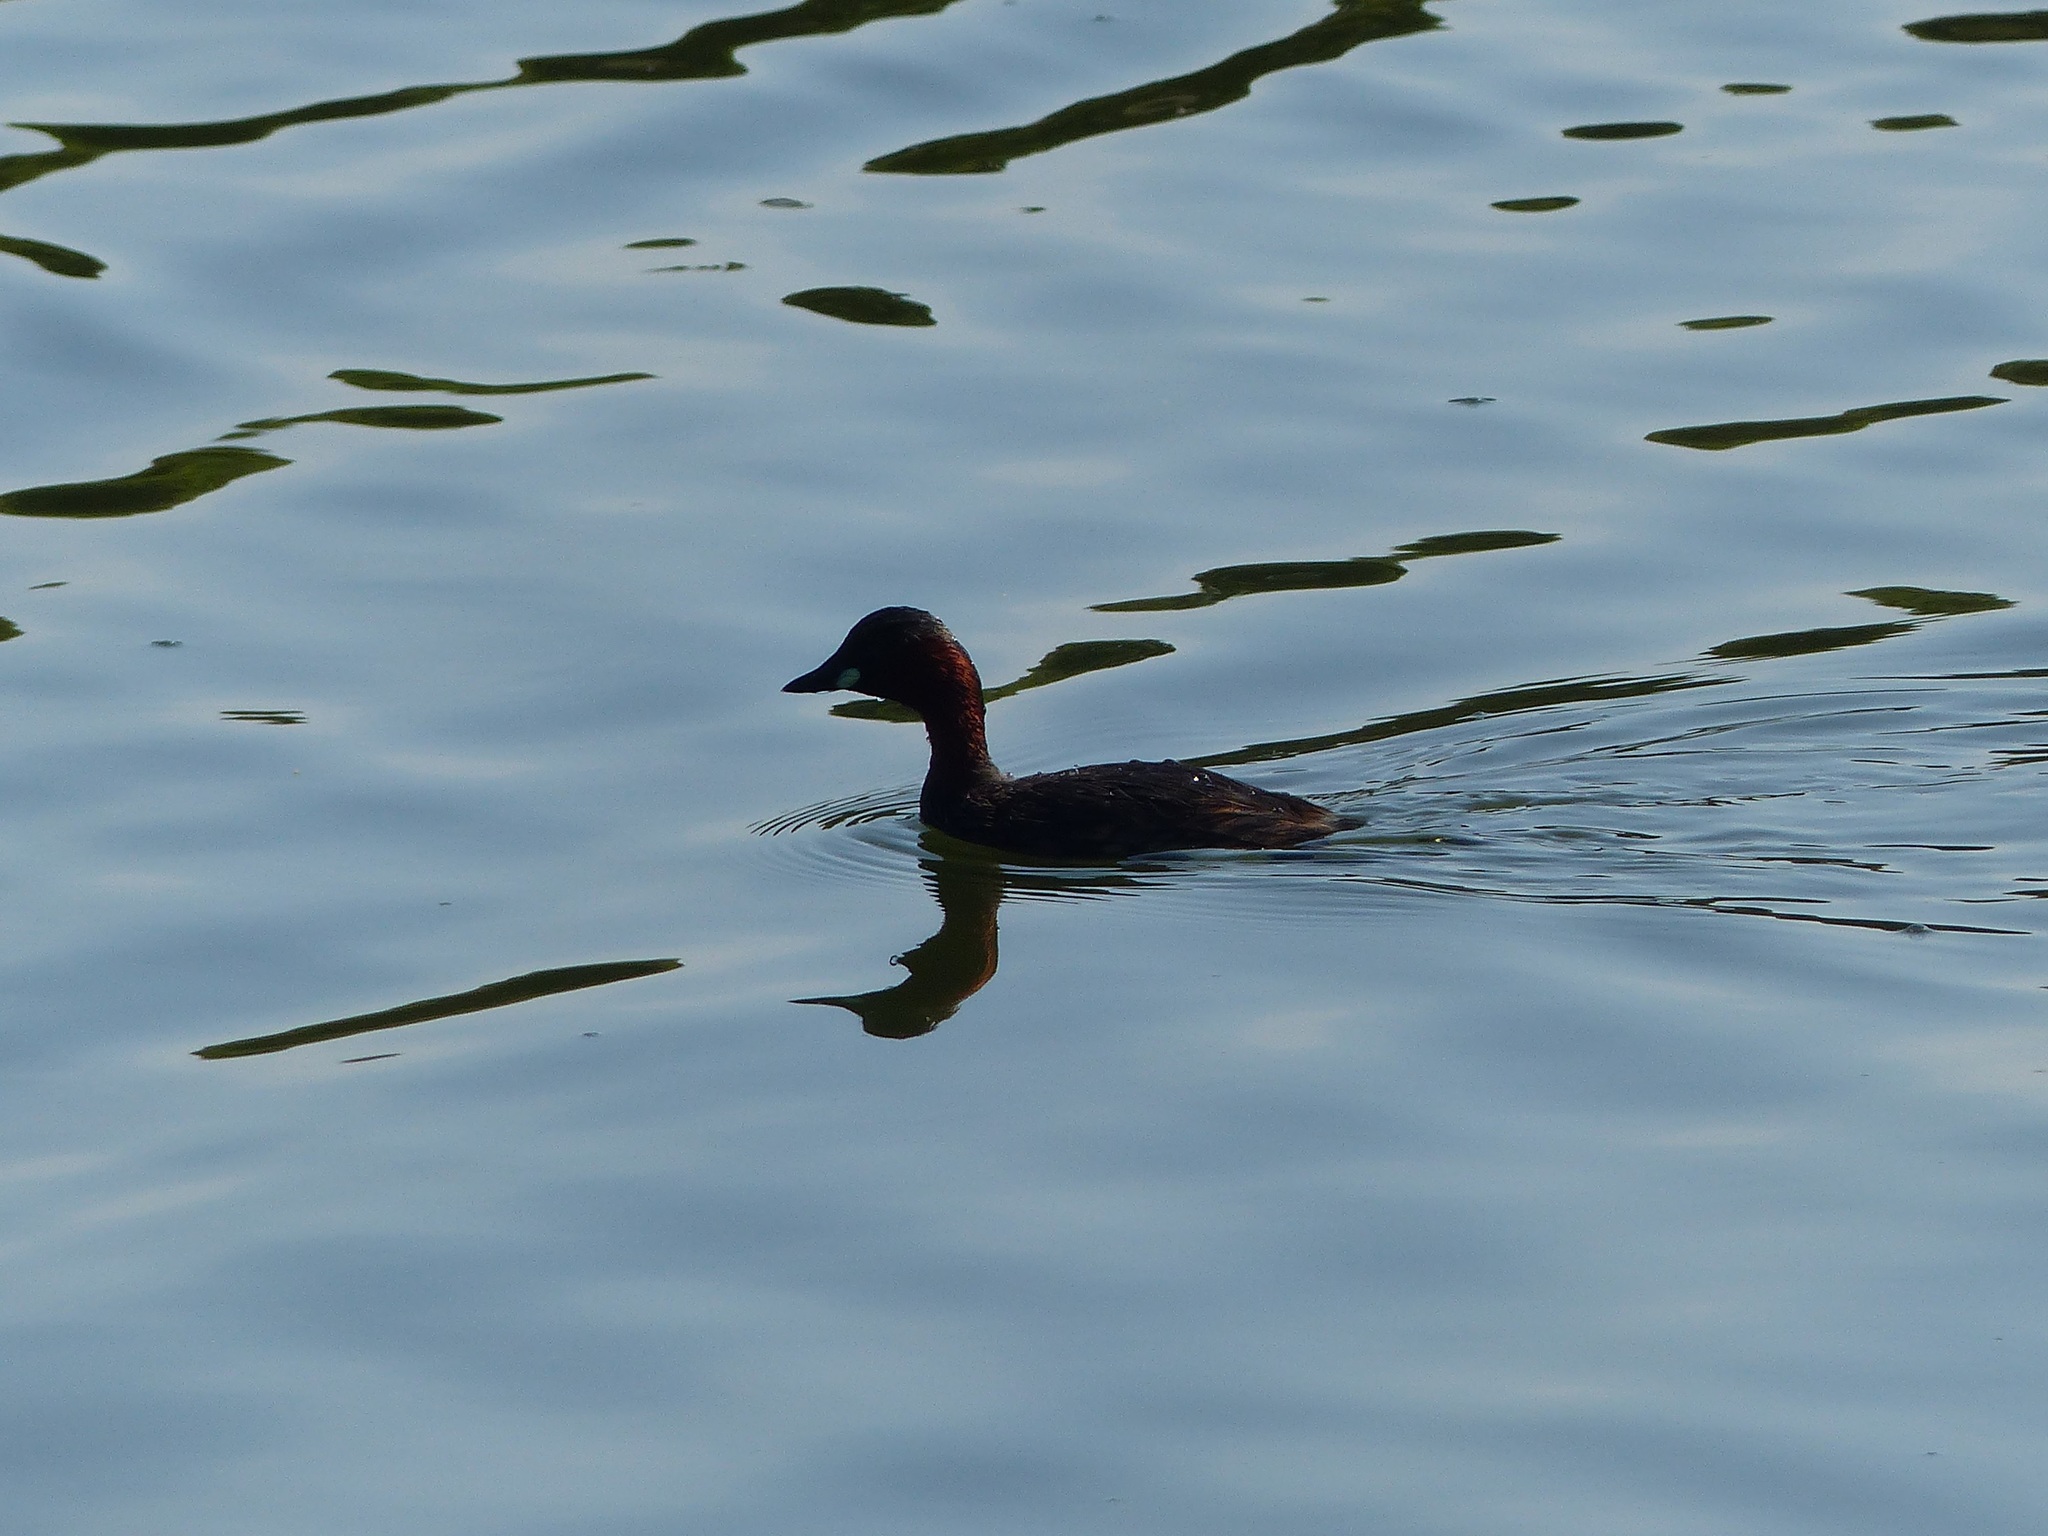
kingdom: Animalia
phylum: Chordata
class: Aves
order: Podicipediformes
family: Podicipedidae
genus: Tachybaptus
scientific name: Tachybaptus ruficollis
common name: Little grebe
